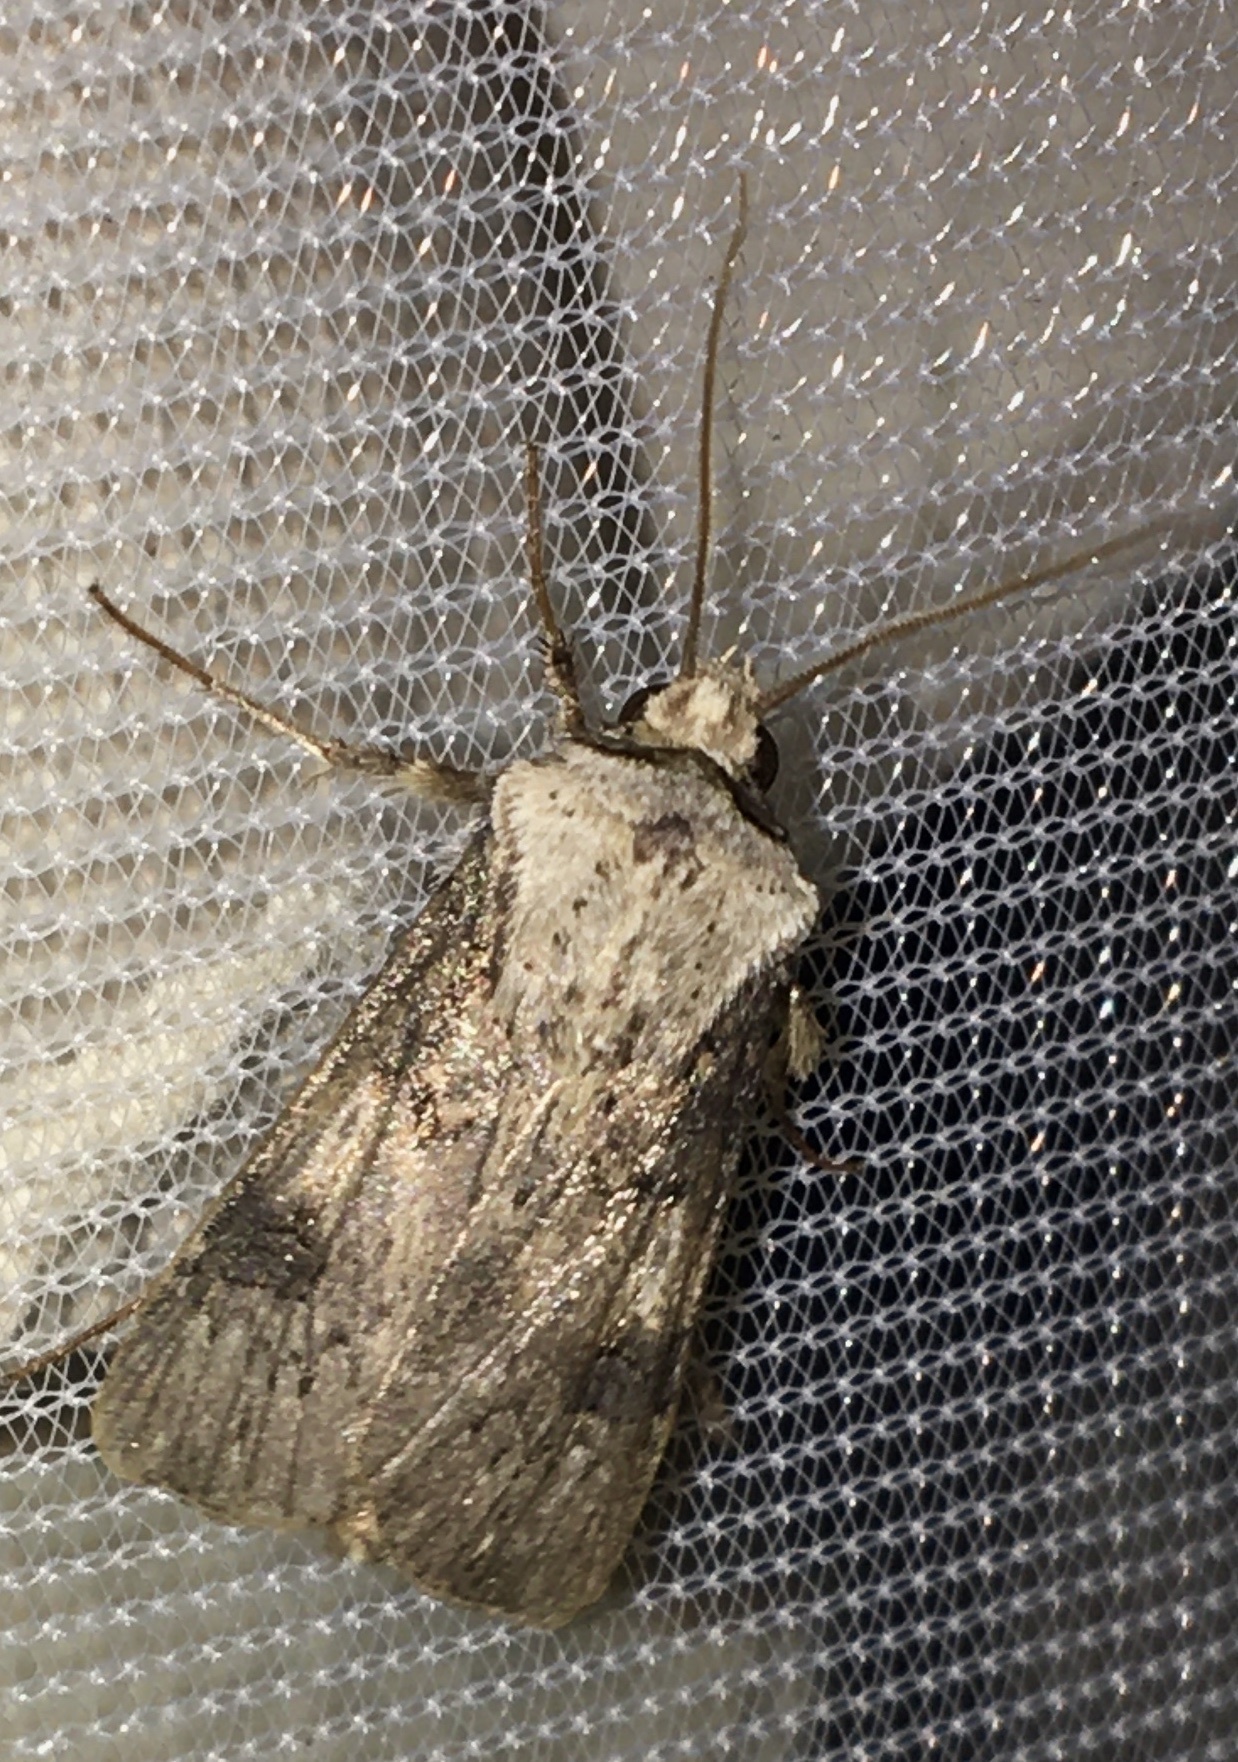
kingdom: Animalia
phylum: Arthropoda
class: Insecta
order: Lepidoptera
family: Noctuidae
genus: Agrotis
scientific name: Agrotis puta
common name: Shuttle-shaped dart
